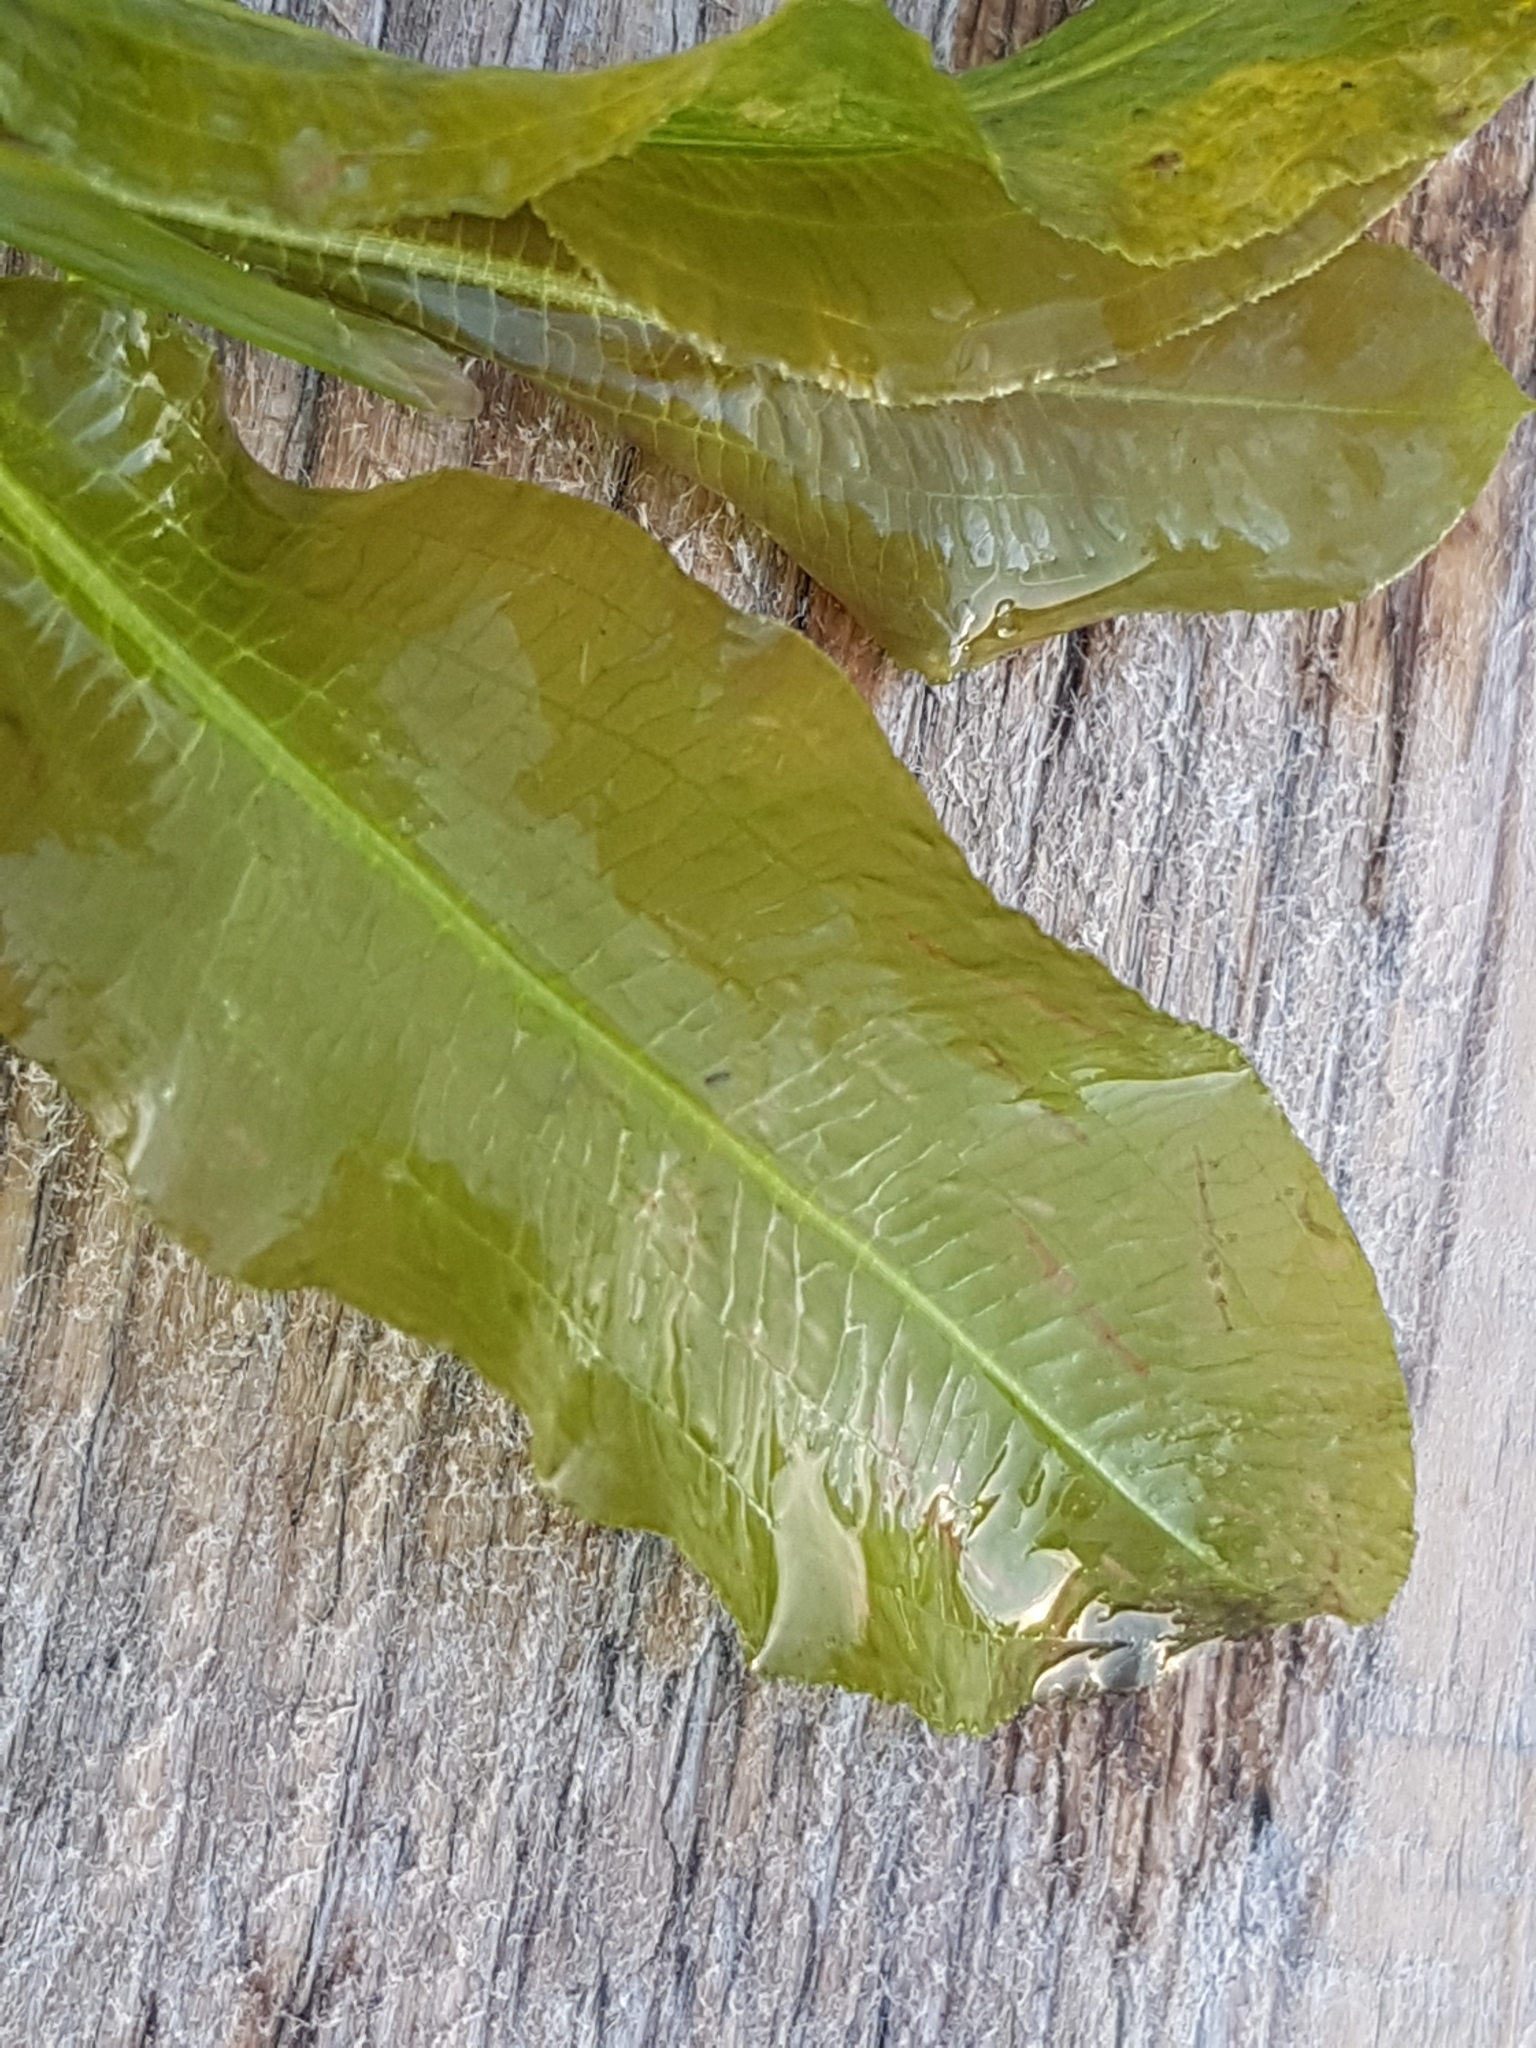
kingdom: Plantae
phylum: Tracheophyta
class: Liliopsida
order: Alismatales
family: Potamogetonaceae
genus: Potamogeton
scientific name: Potamogeton lucens
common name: Shining pondweed
